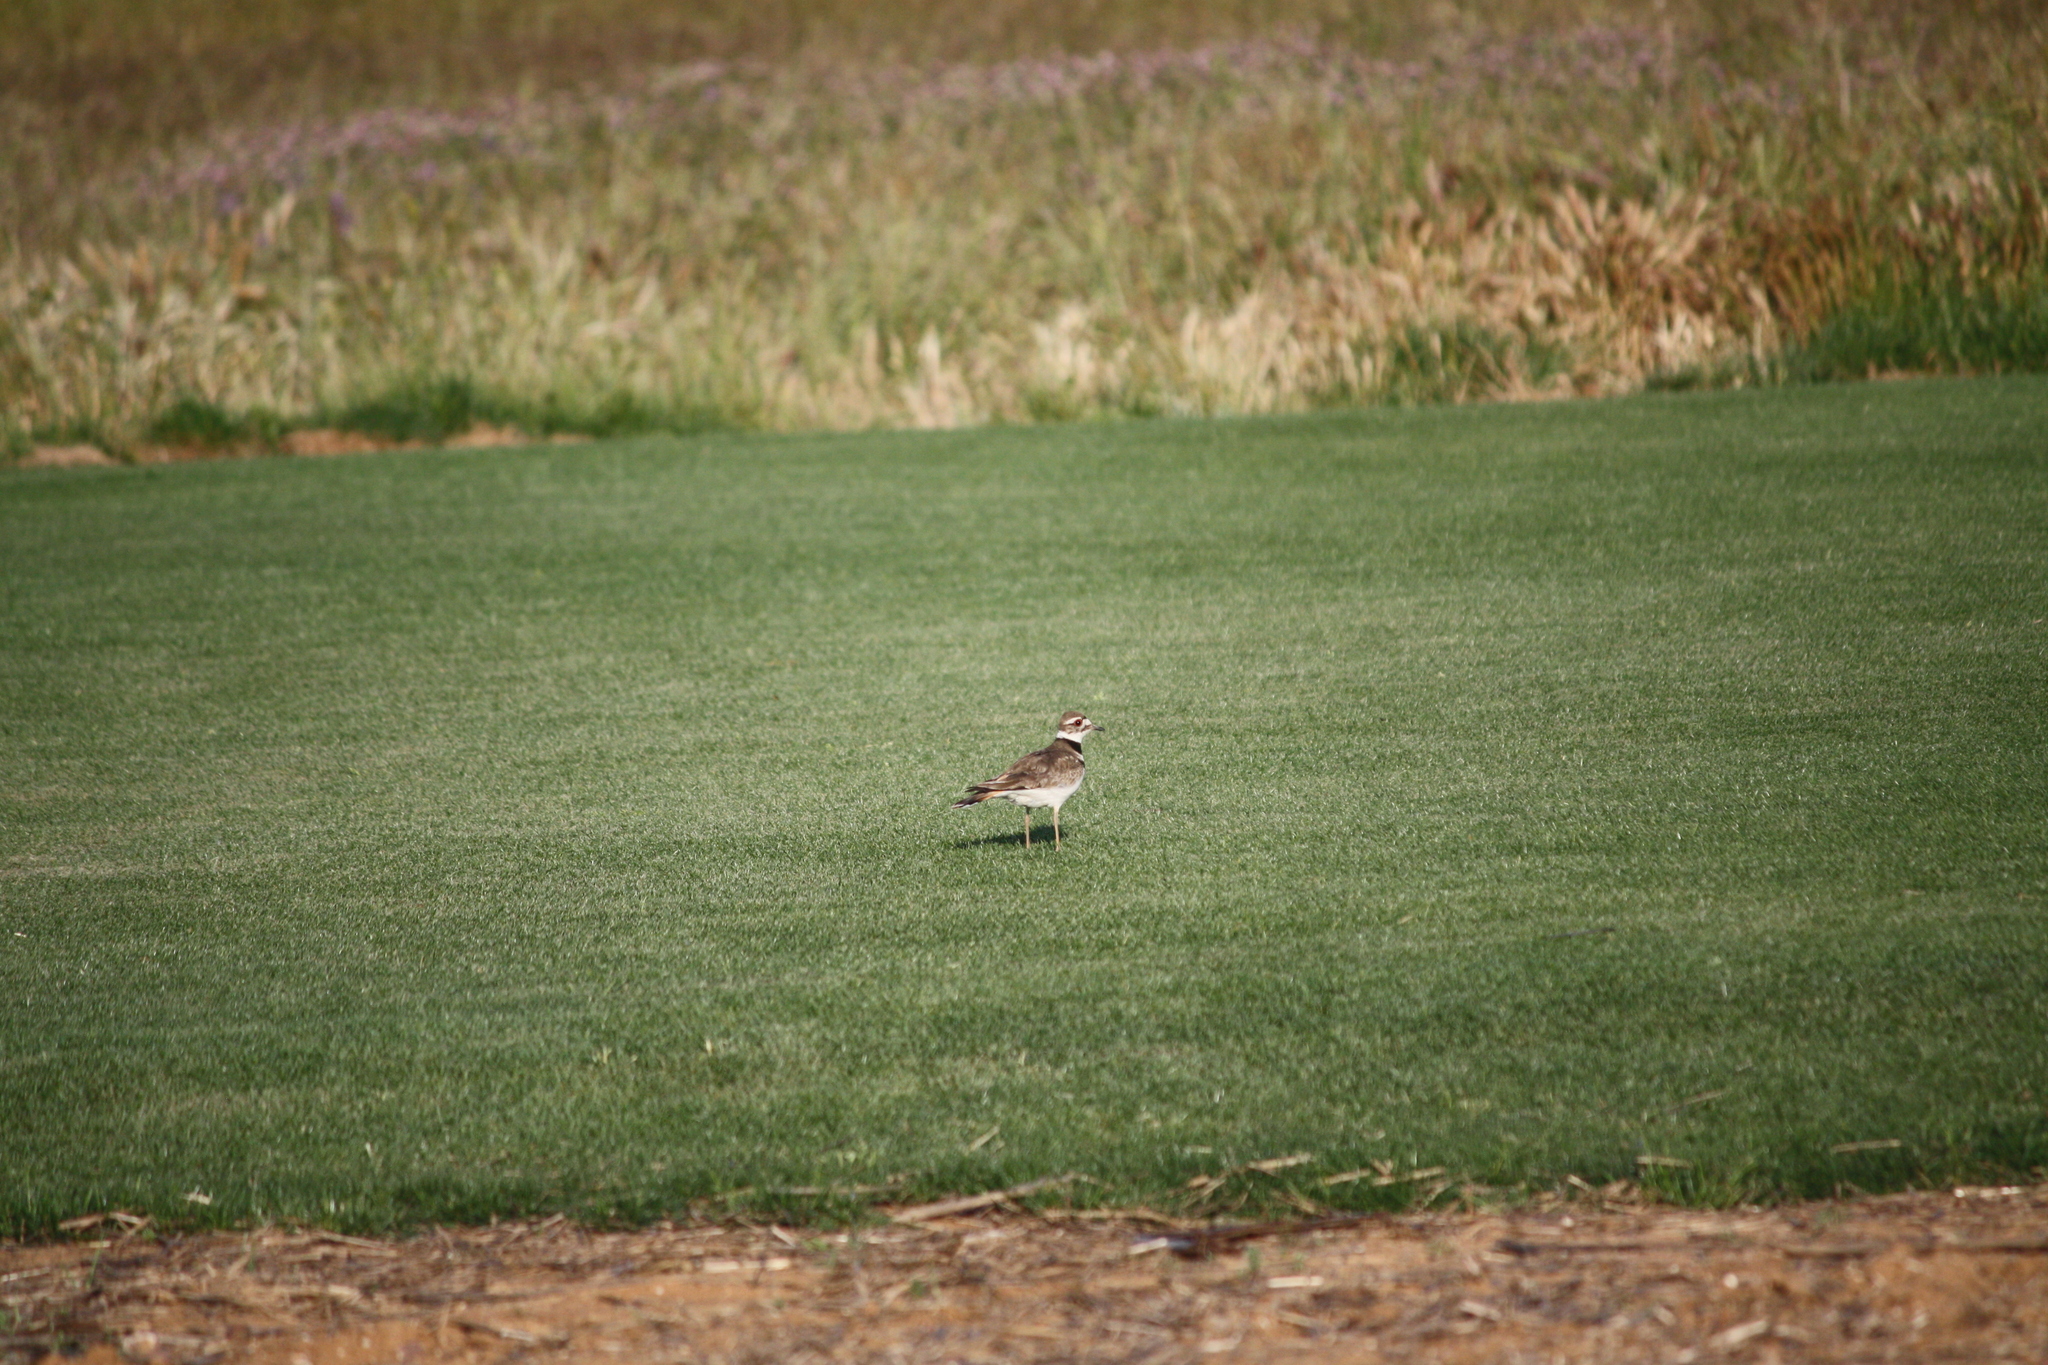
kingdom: Animalia
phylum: Chordata
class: Aves
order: Charadriiformes
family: Charadriidae
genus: Charadrius
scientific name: Charadrius vociferus
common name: Killdeer
